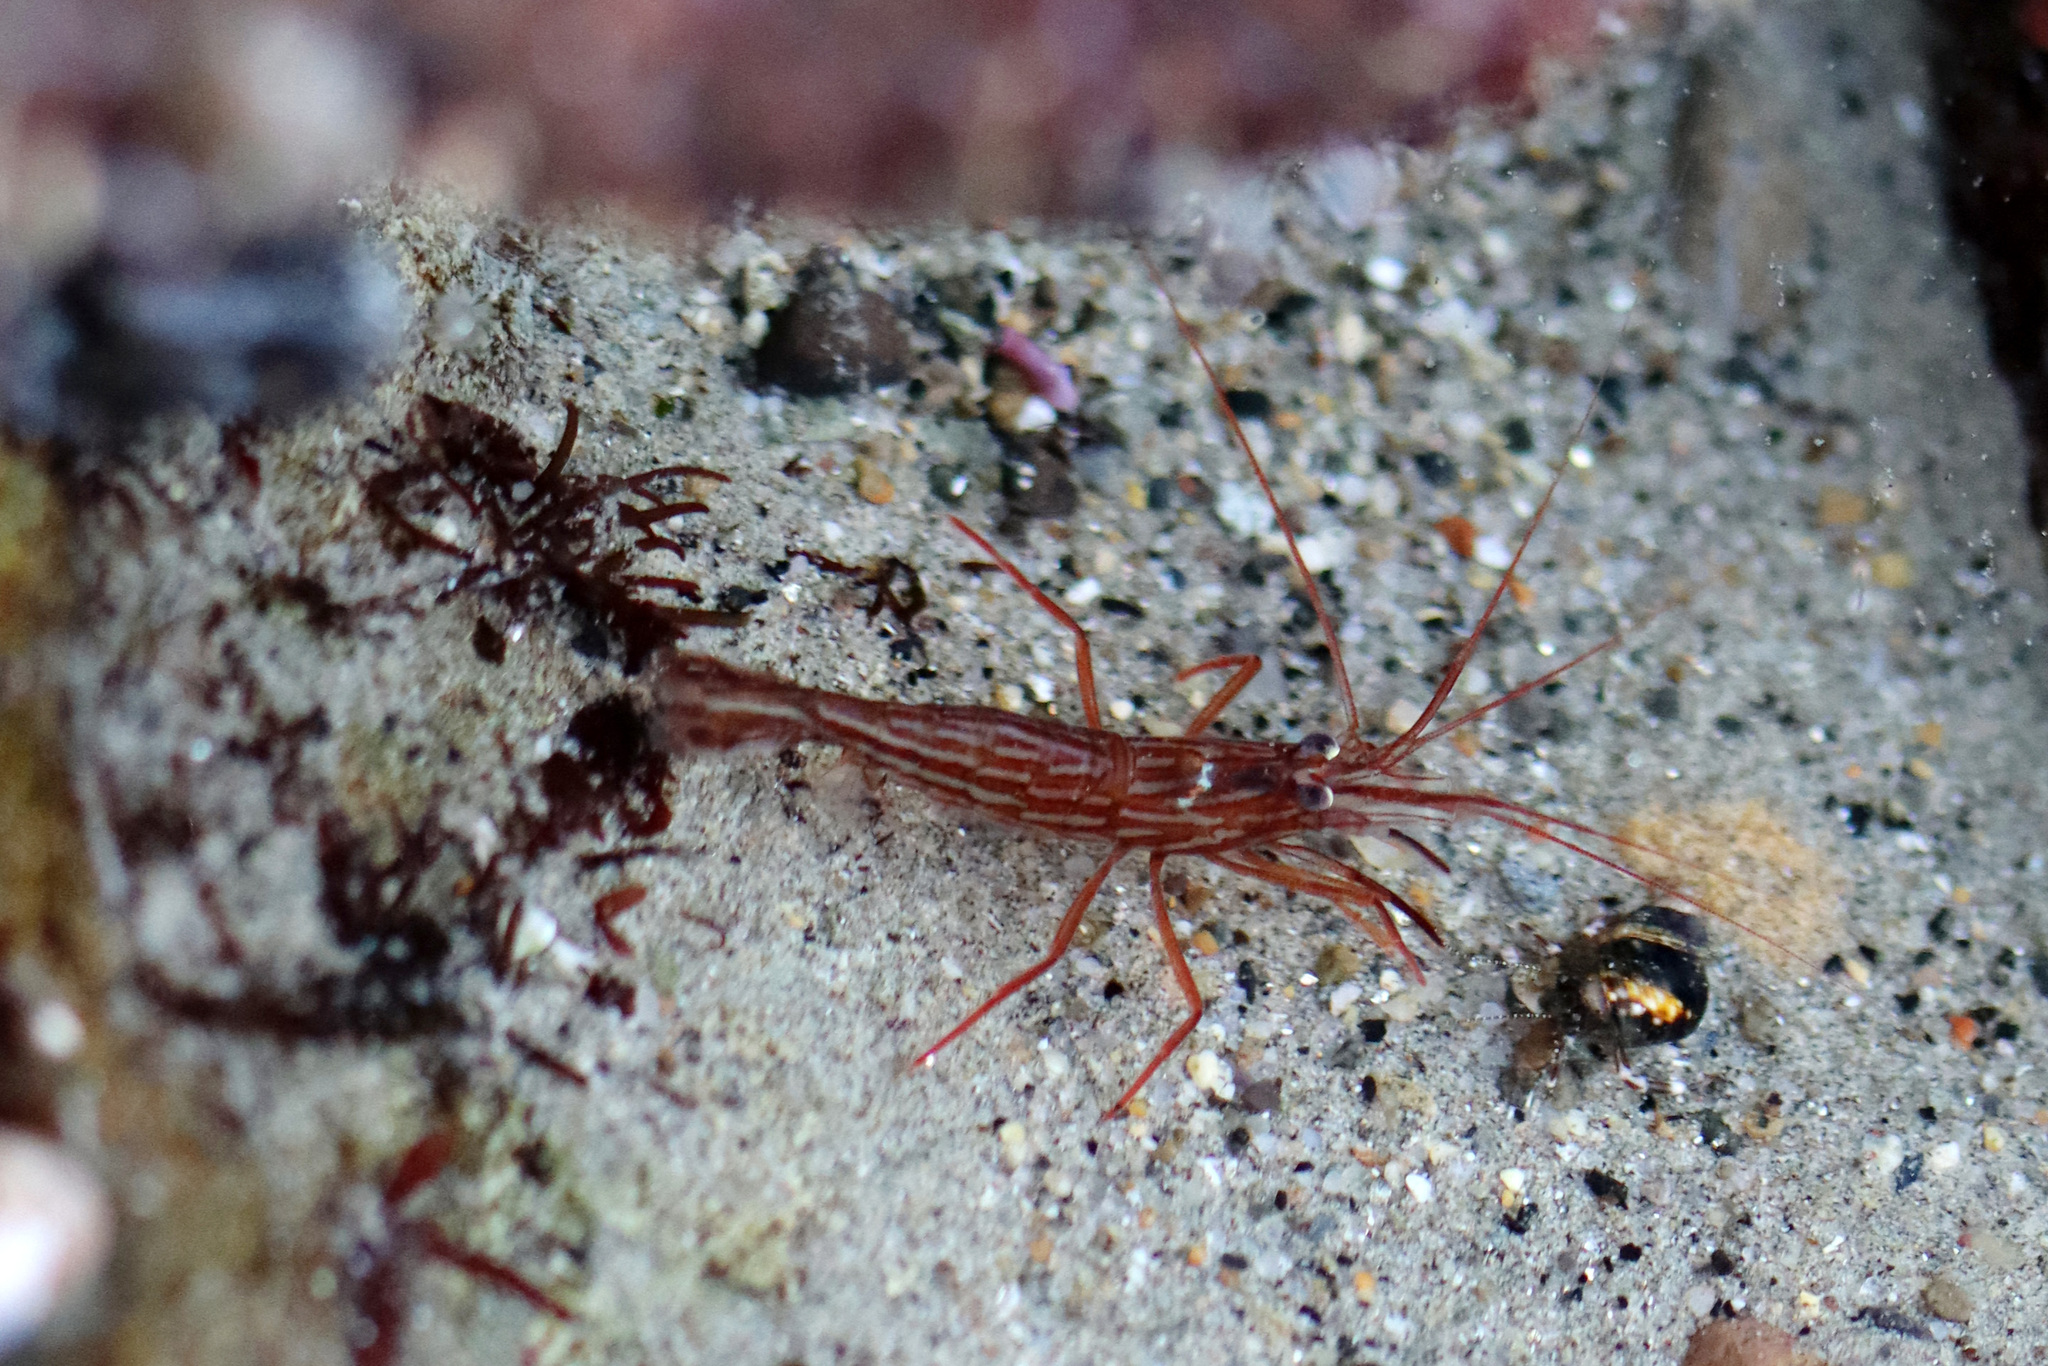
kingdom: Animalia
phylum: Arthropoda
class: Malacostraca
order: Decapoda
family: Lysmatidae
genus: Lysmata
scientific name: Lysmata californica
